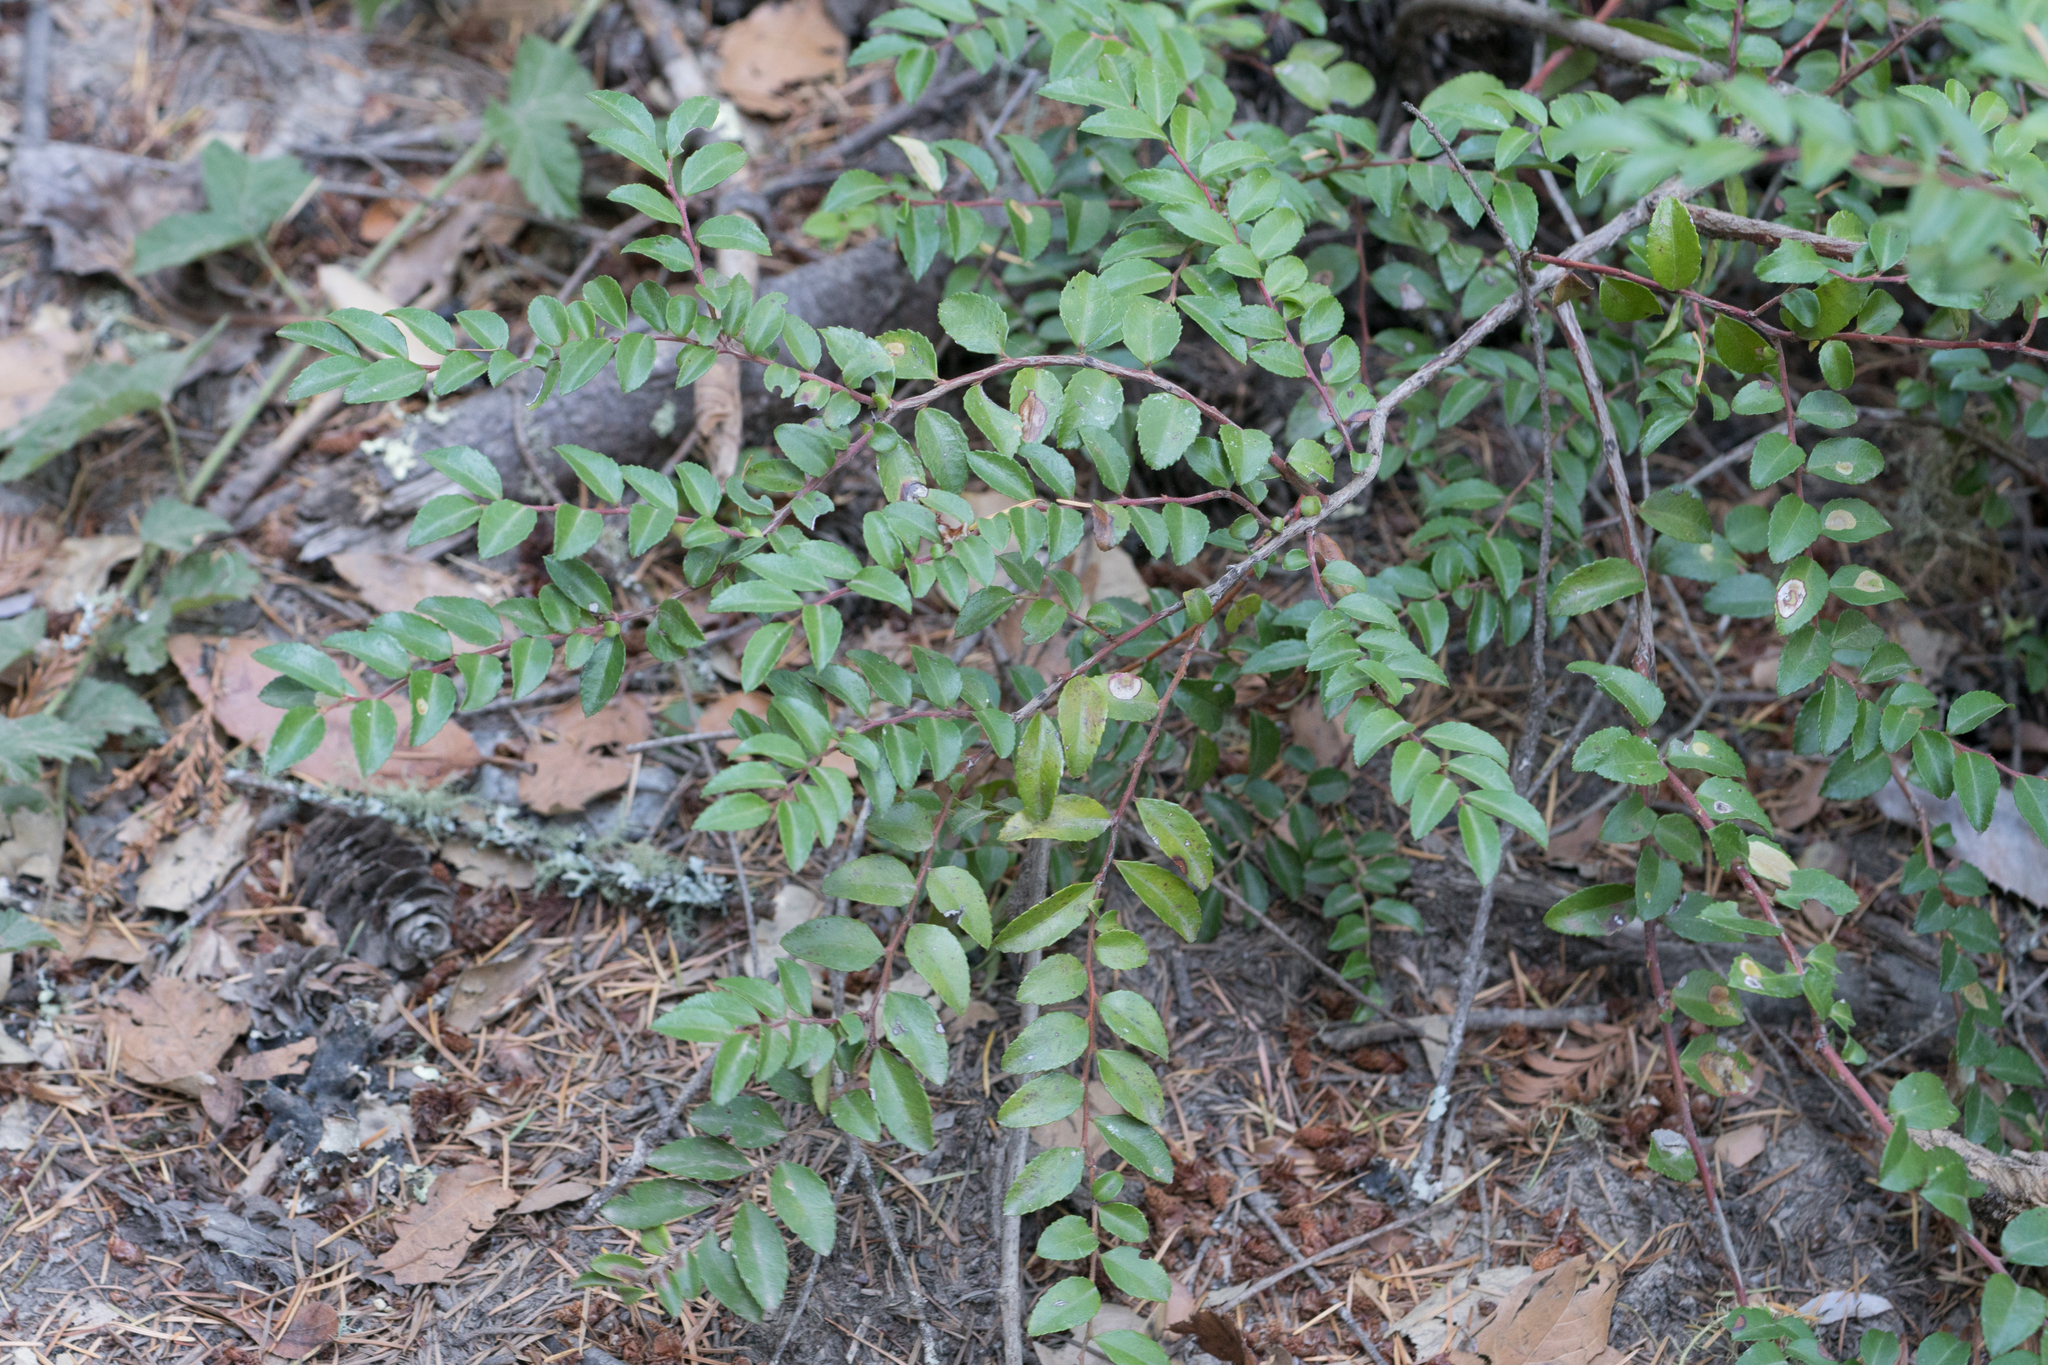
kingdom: Plantae
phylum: Tracheophyta
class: Magnoliopsida
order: Ericales
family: Ericaceae
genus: Vaccinium
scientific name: Vaccinium ovatum
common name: California-huckleberry
